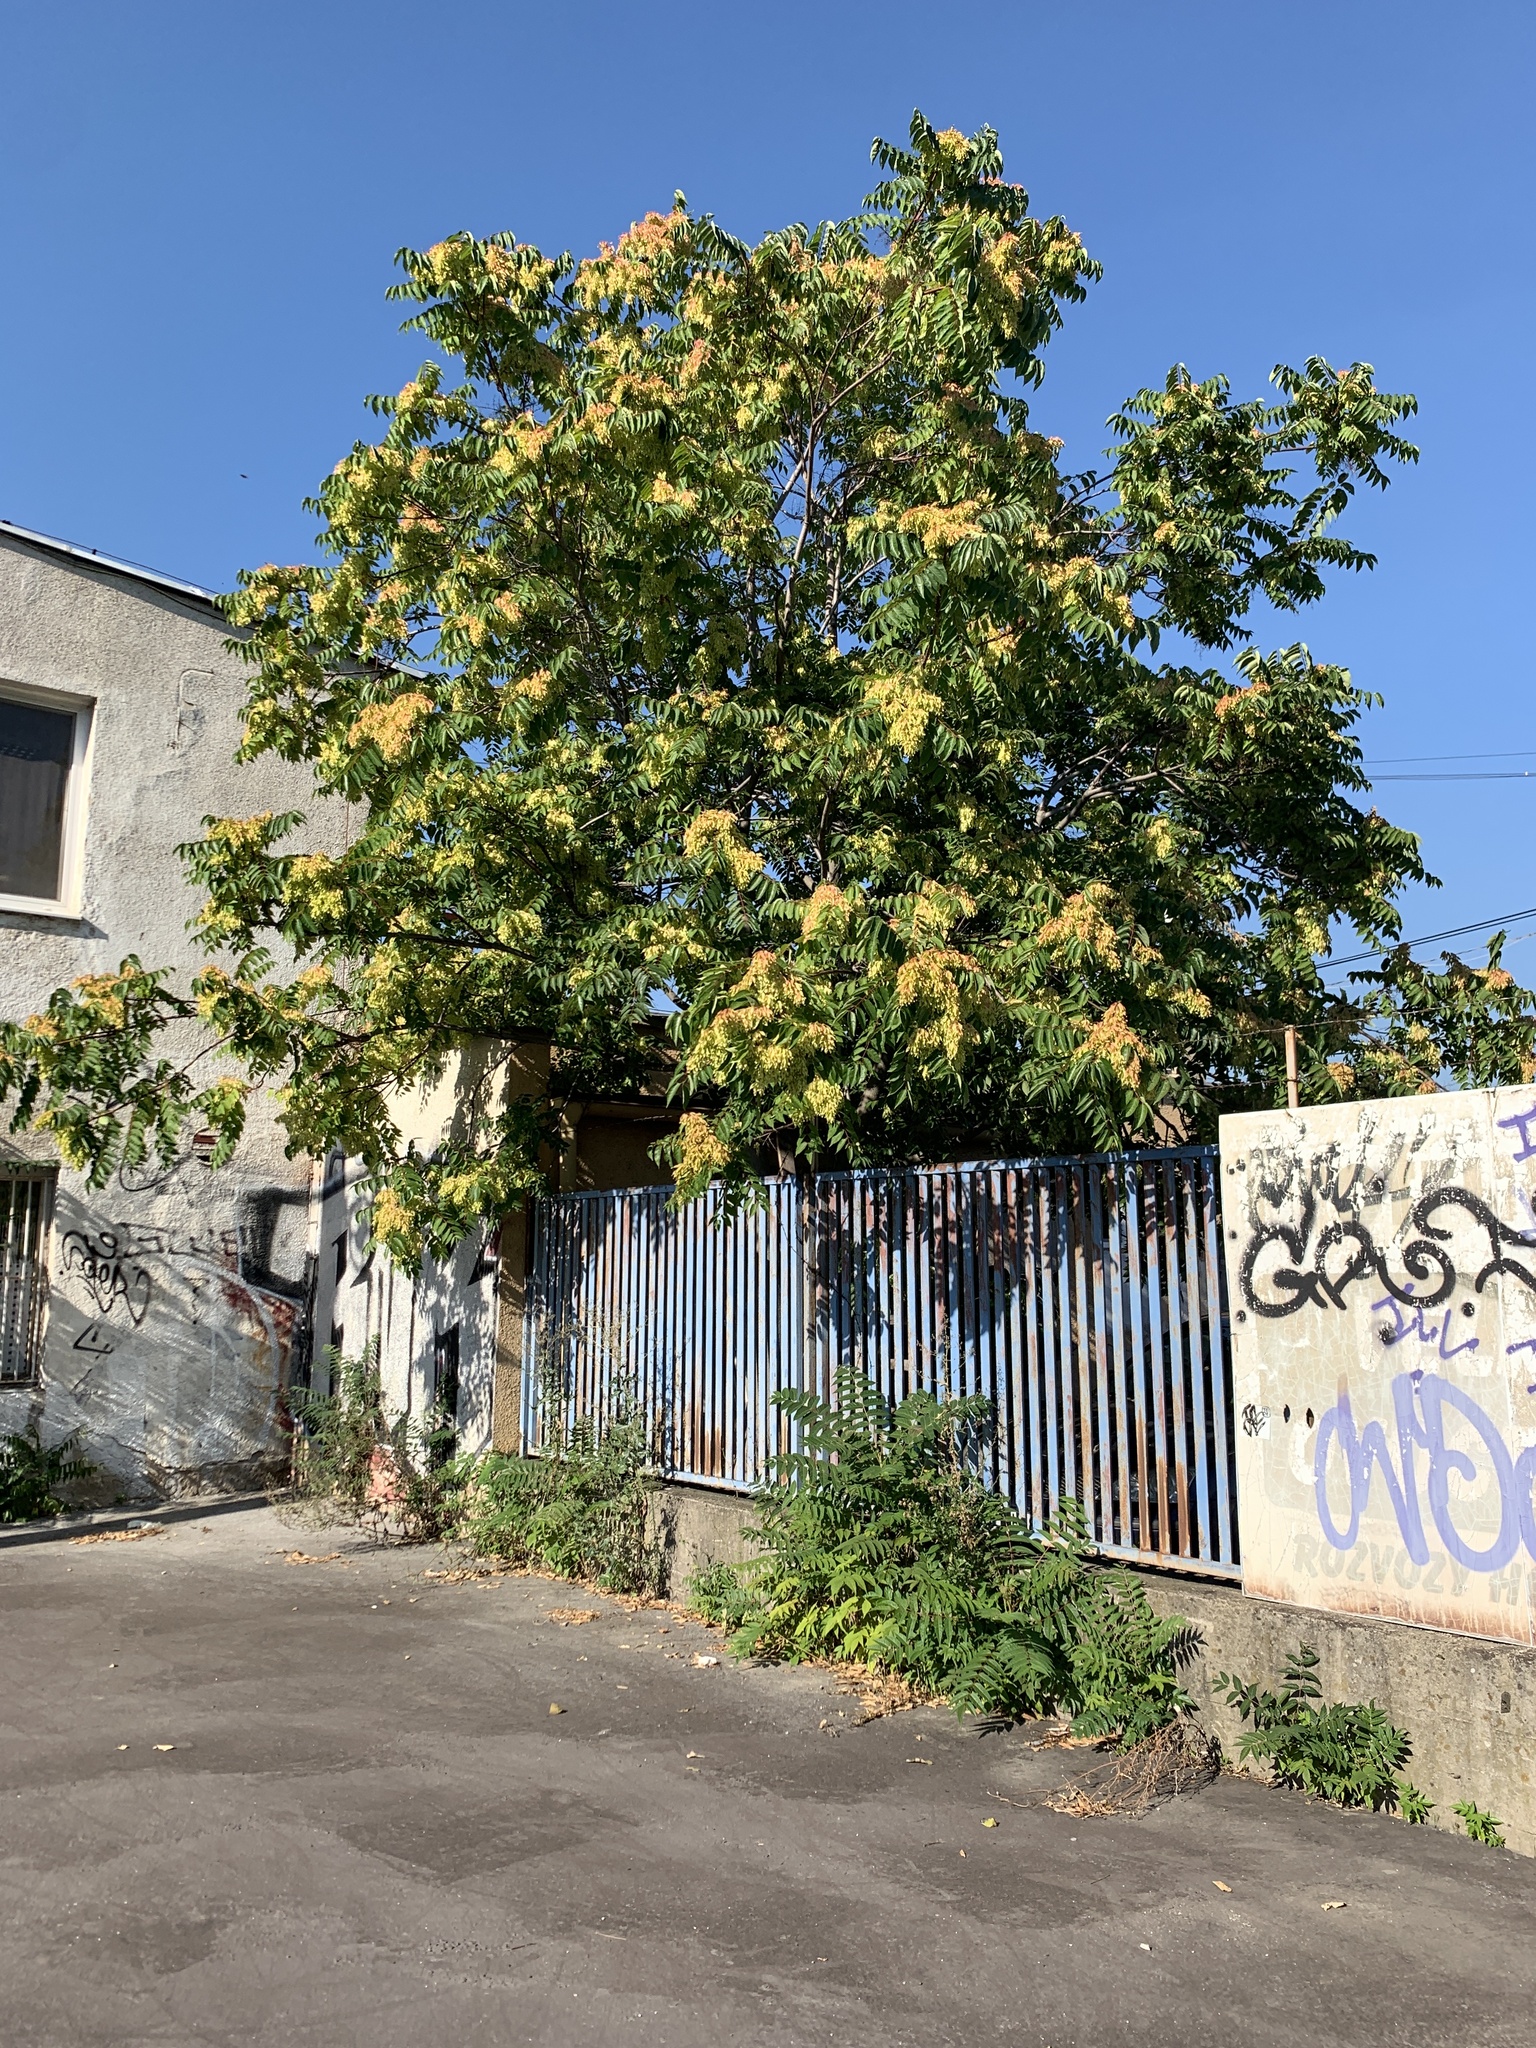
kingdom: Plantae
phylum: Tracheophyta
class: Magnoliopsida
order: Sapindales
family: Simaroubaceae
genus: Ailanthus
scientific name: Ailanthus altissima
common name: Tree-of-heaven
